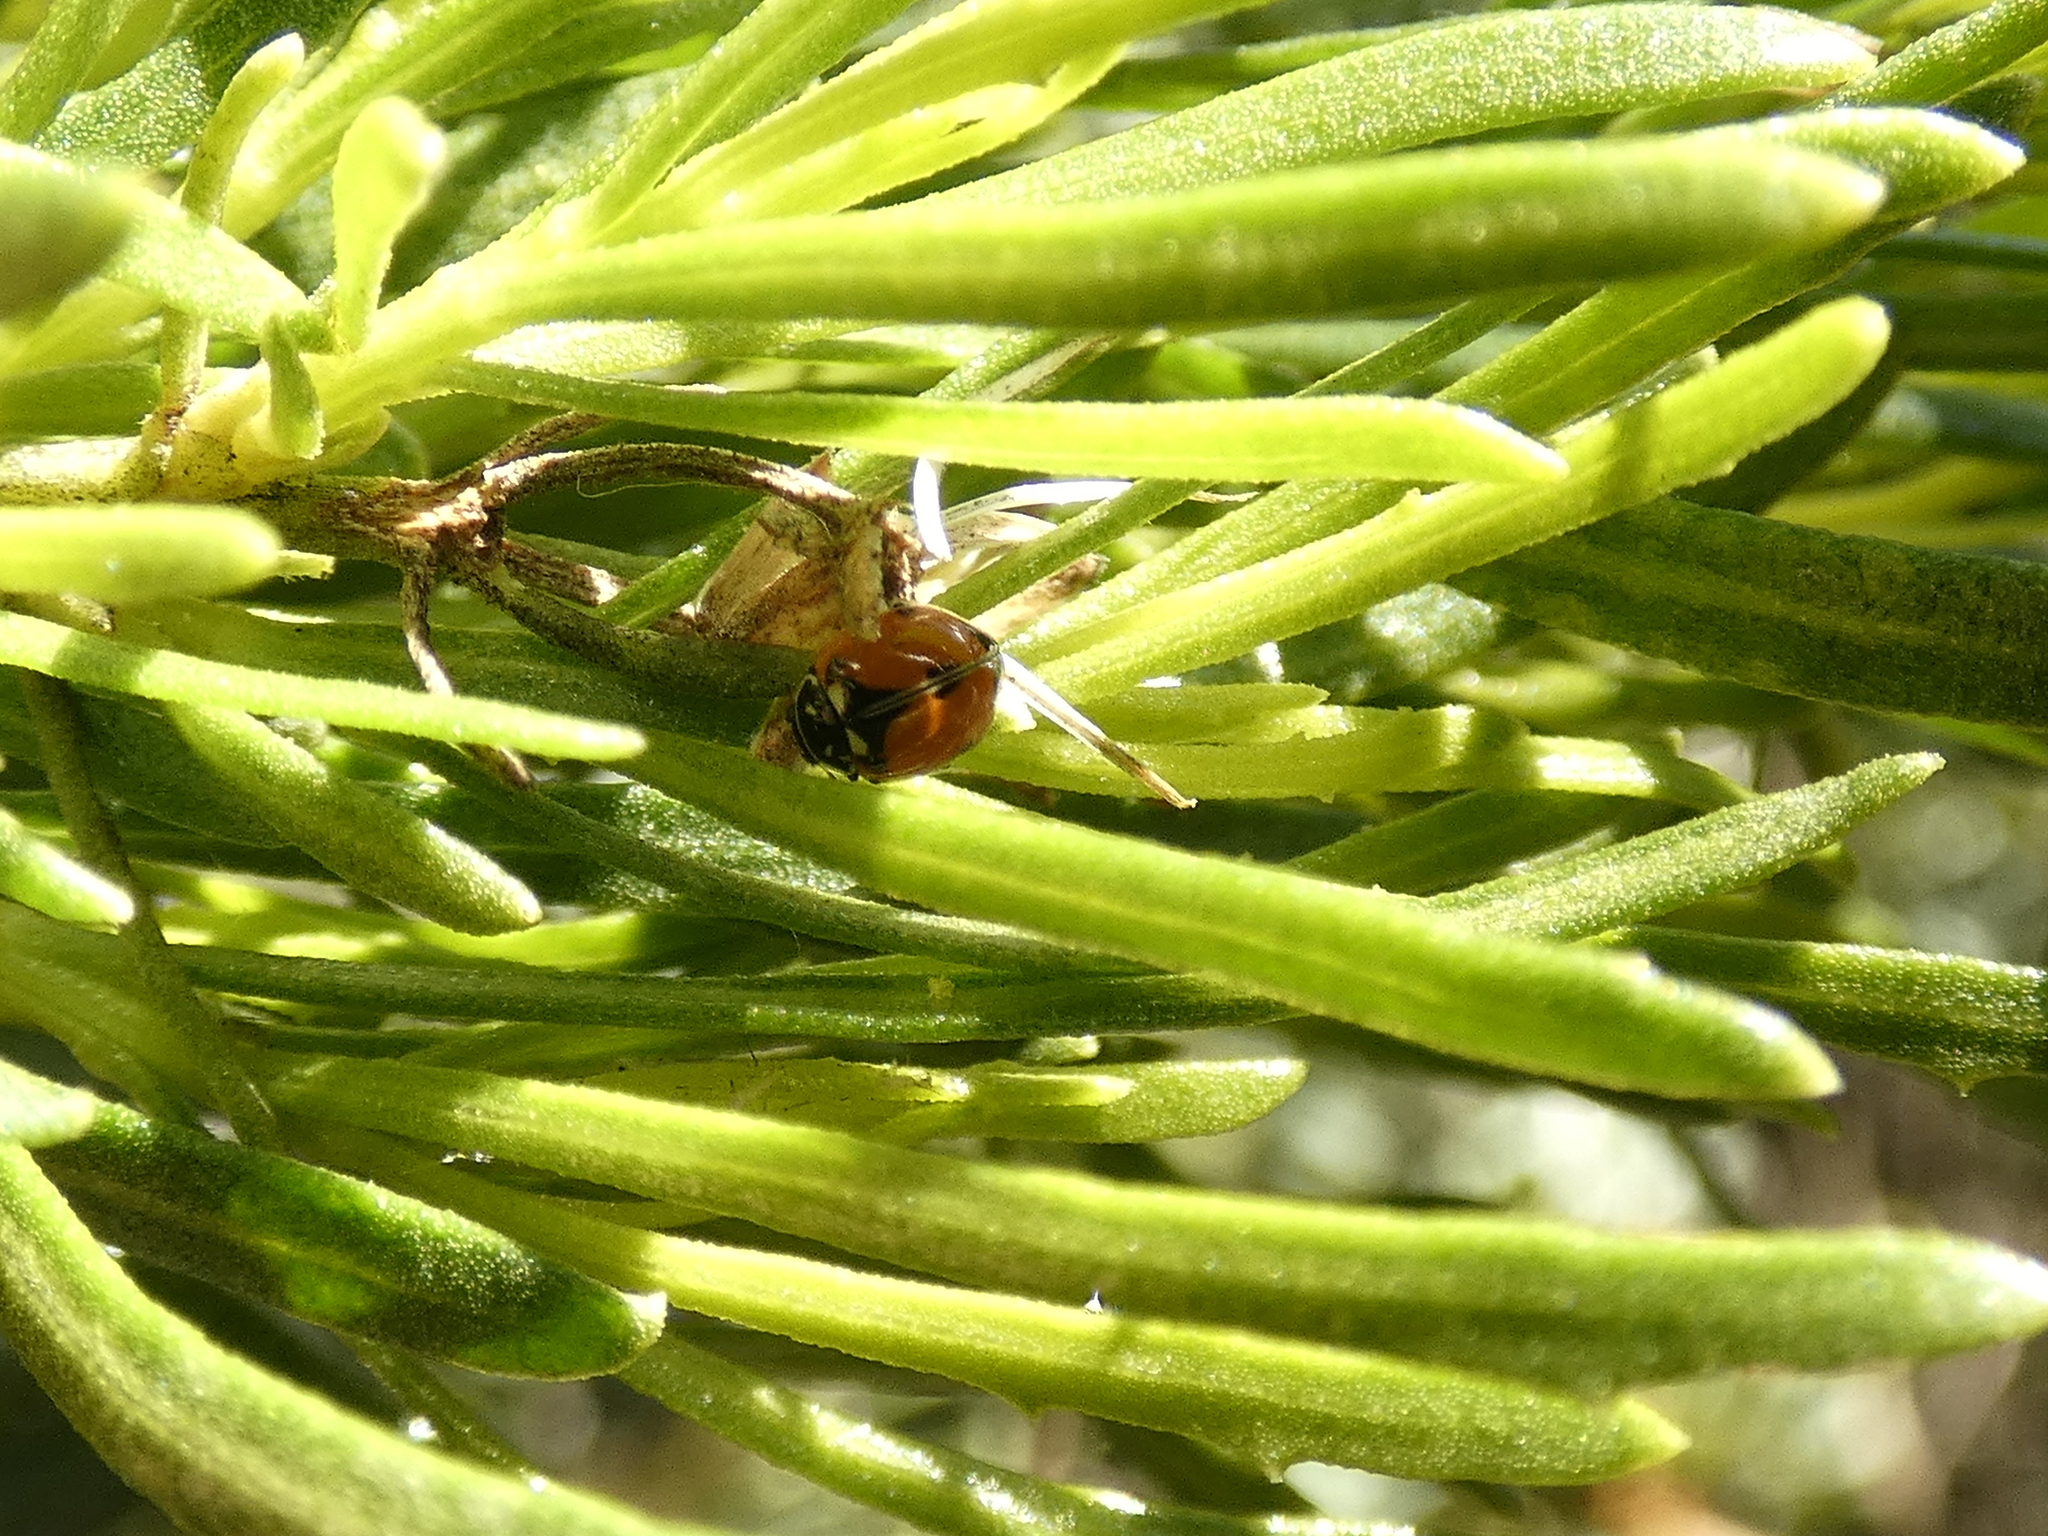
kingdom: Animalia
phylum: Arthropoda
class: Insecta
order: Coleoptera
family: Coccinellidae
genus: Adalia
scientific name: Adalia angulifera
